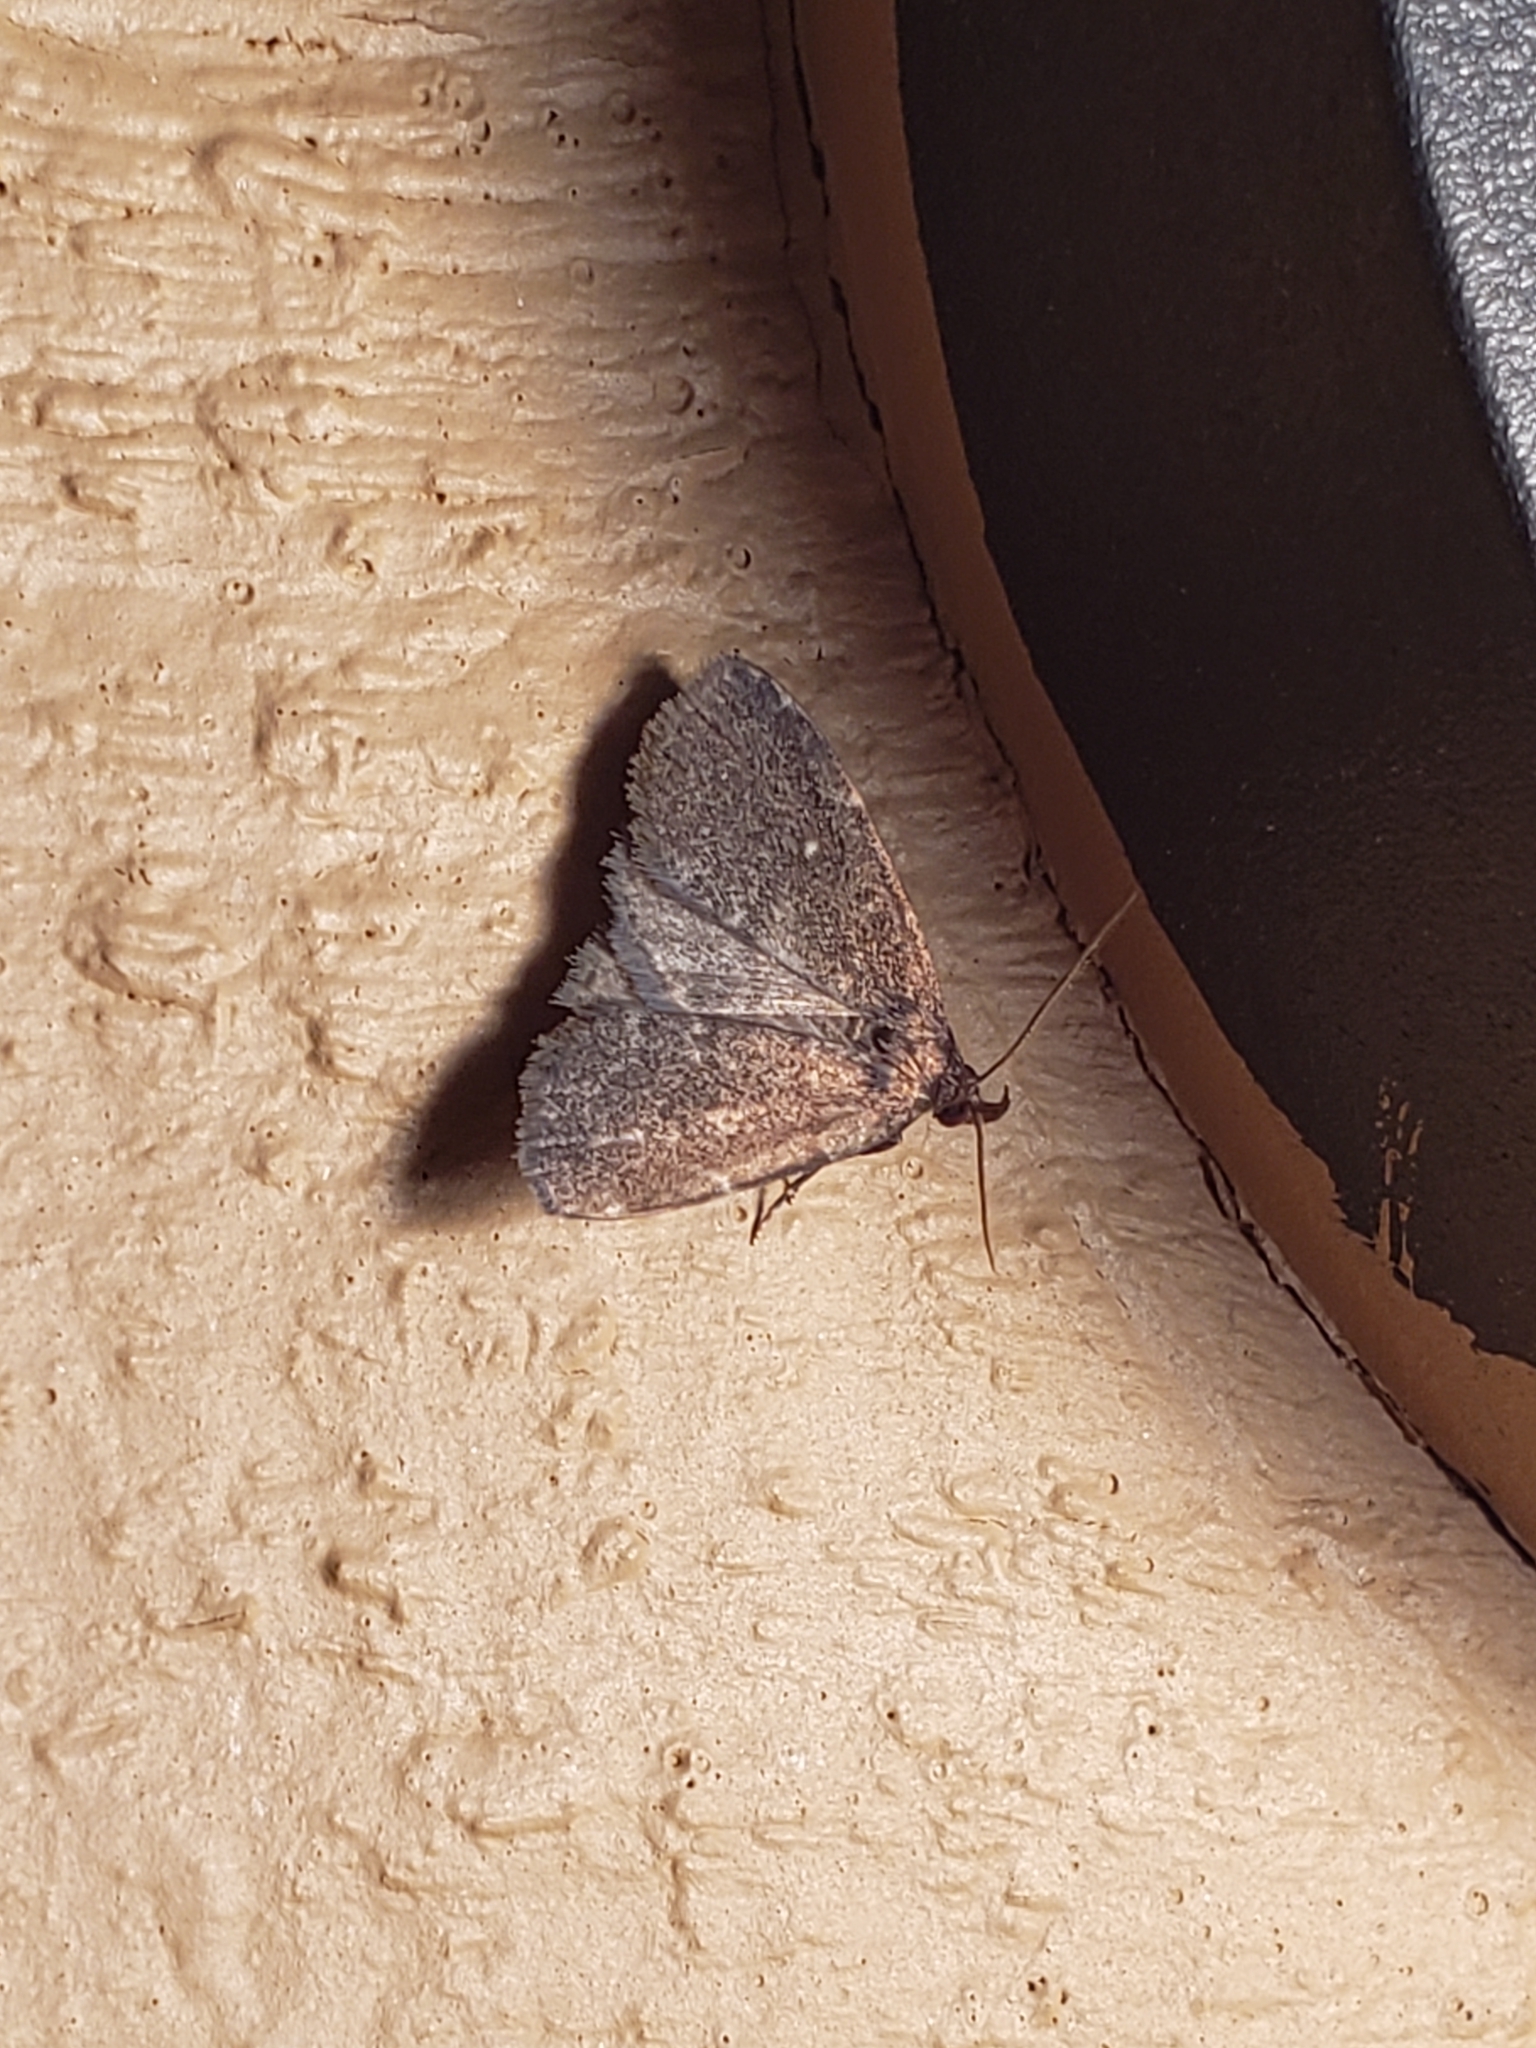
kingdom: Animalia
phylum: Arthropoda
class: Insecta
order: Lepidoptera
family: Erebidae
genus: Idia
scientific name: Idia julia
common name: Julia's idia moth
